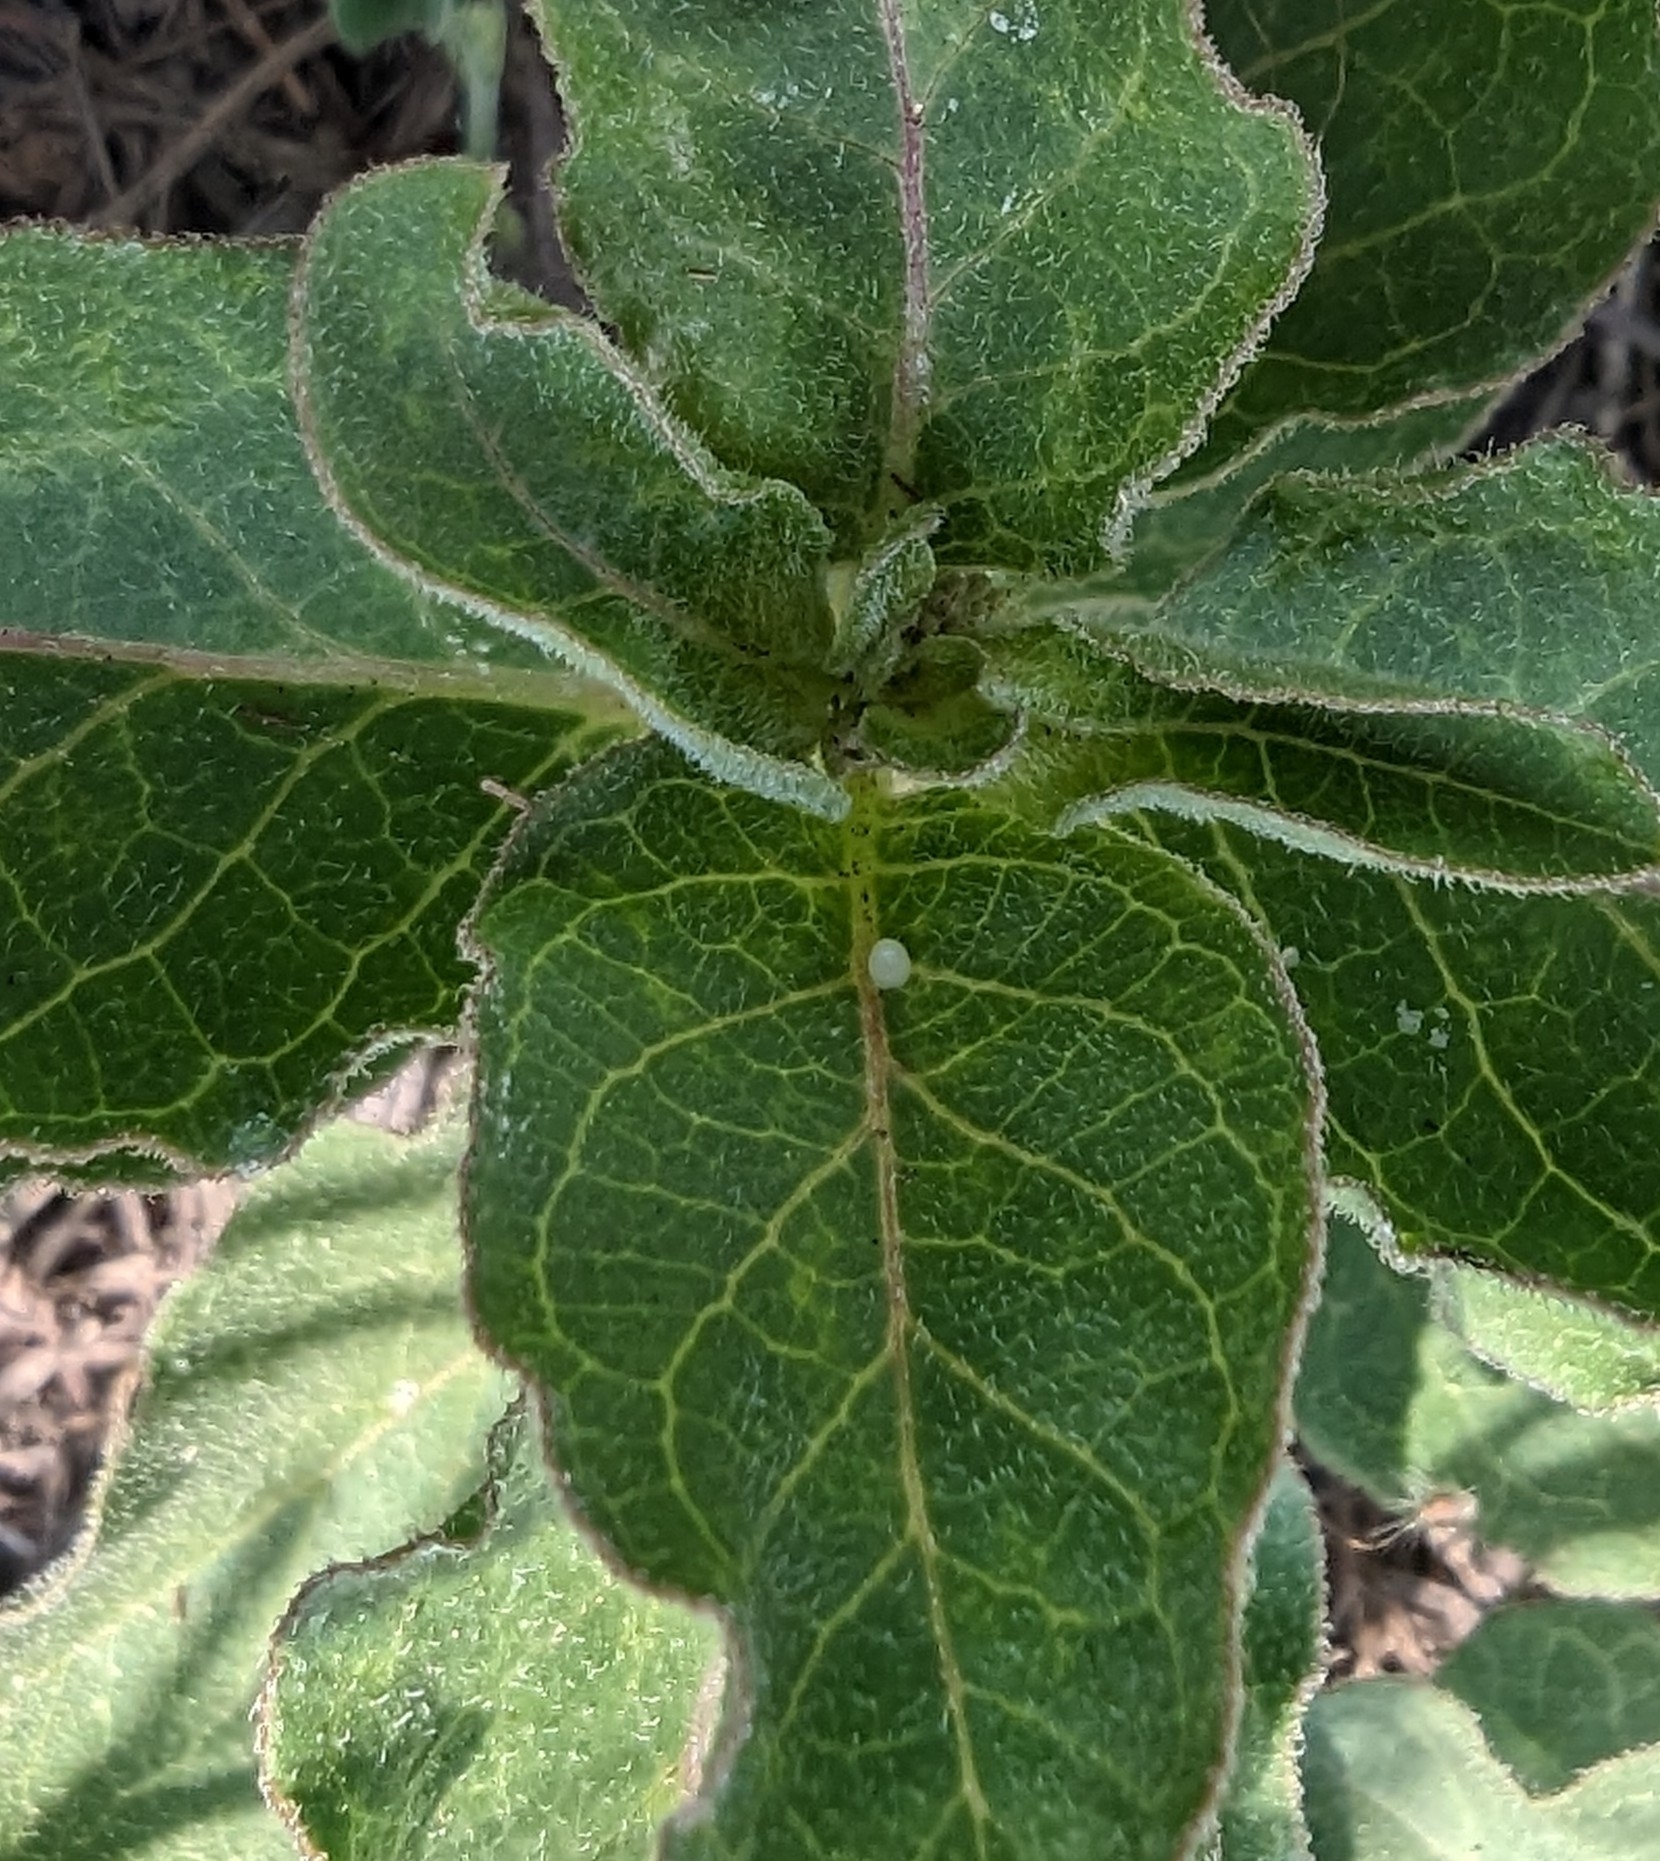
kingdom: Animalia
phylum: Arthropoda
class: Insecta
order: Lepidoptera
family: Nymphalidae
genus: Danaus
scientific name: Danaus plexippus
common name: Monarch
